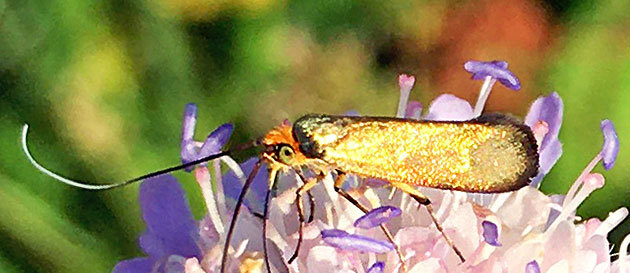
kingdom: Animalia
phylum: Arthropoda
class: Insecta
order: Lepidoptera
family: Adelidae
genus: Nemophora
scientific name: Nemophora metallica
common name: Brassy long-horn
